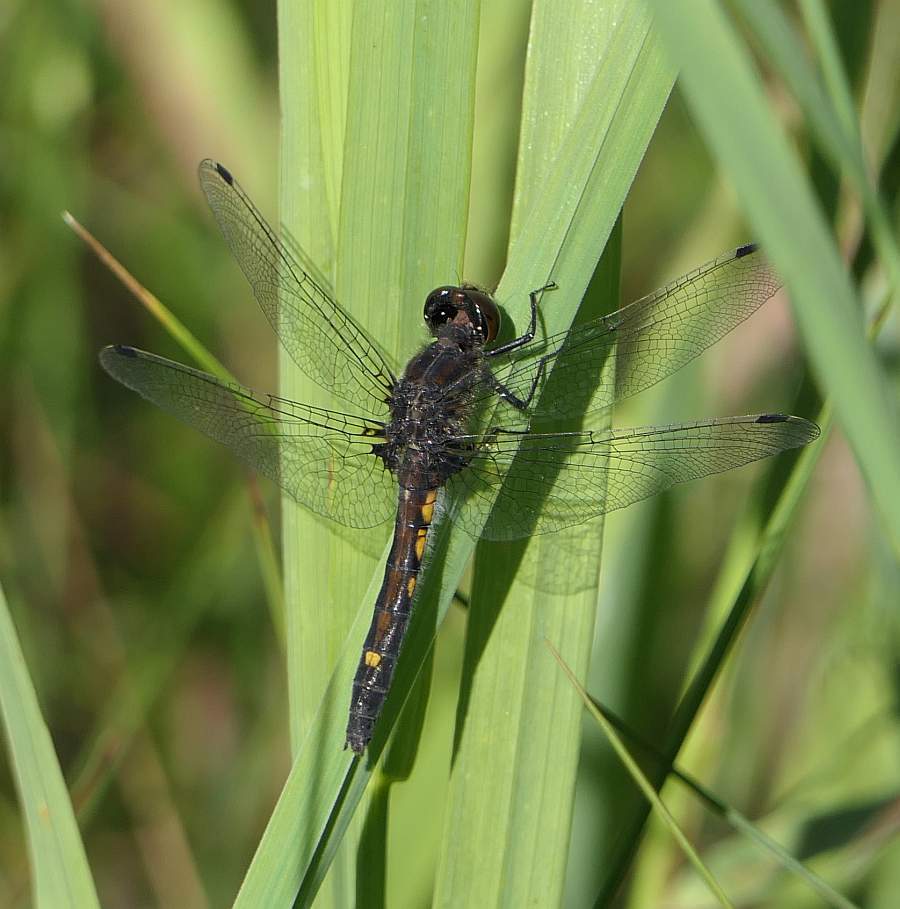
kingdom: Animalia
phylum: Arthropoda
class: Insecta
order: Odonata
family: Libellulidae
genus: Leucorrhinia
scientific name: Leucorrhinia intacta
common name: Dot-tailed whiteface
